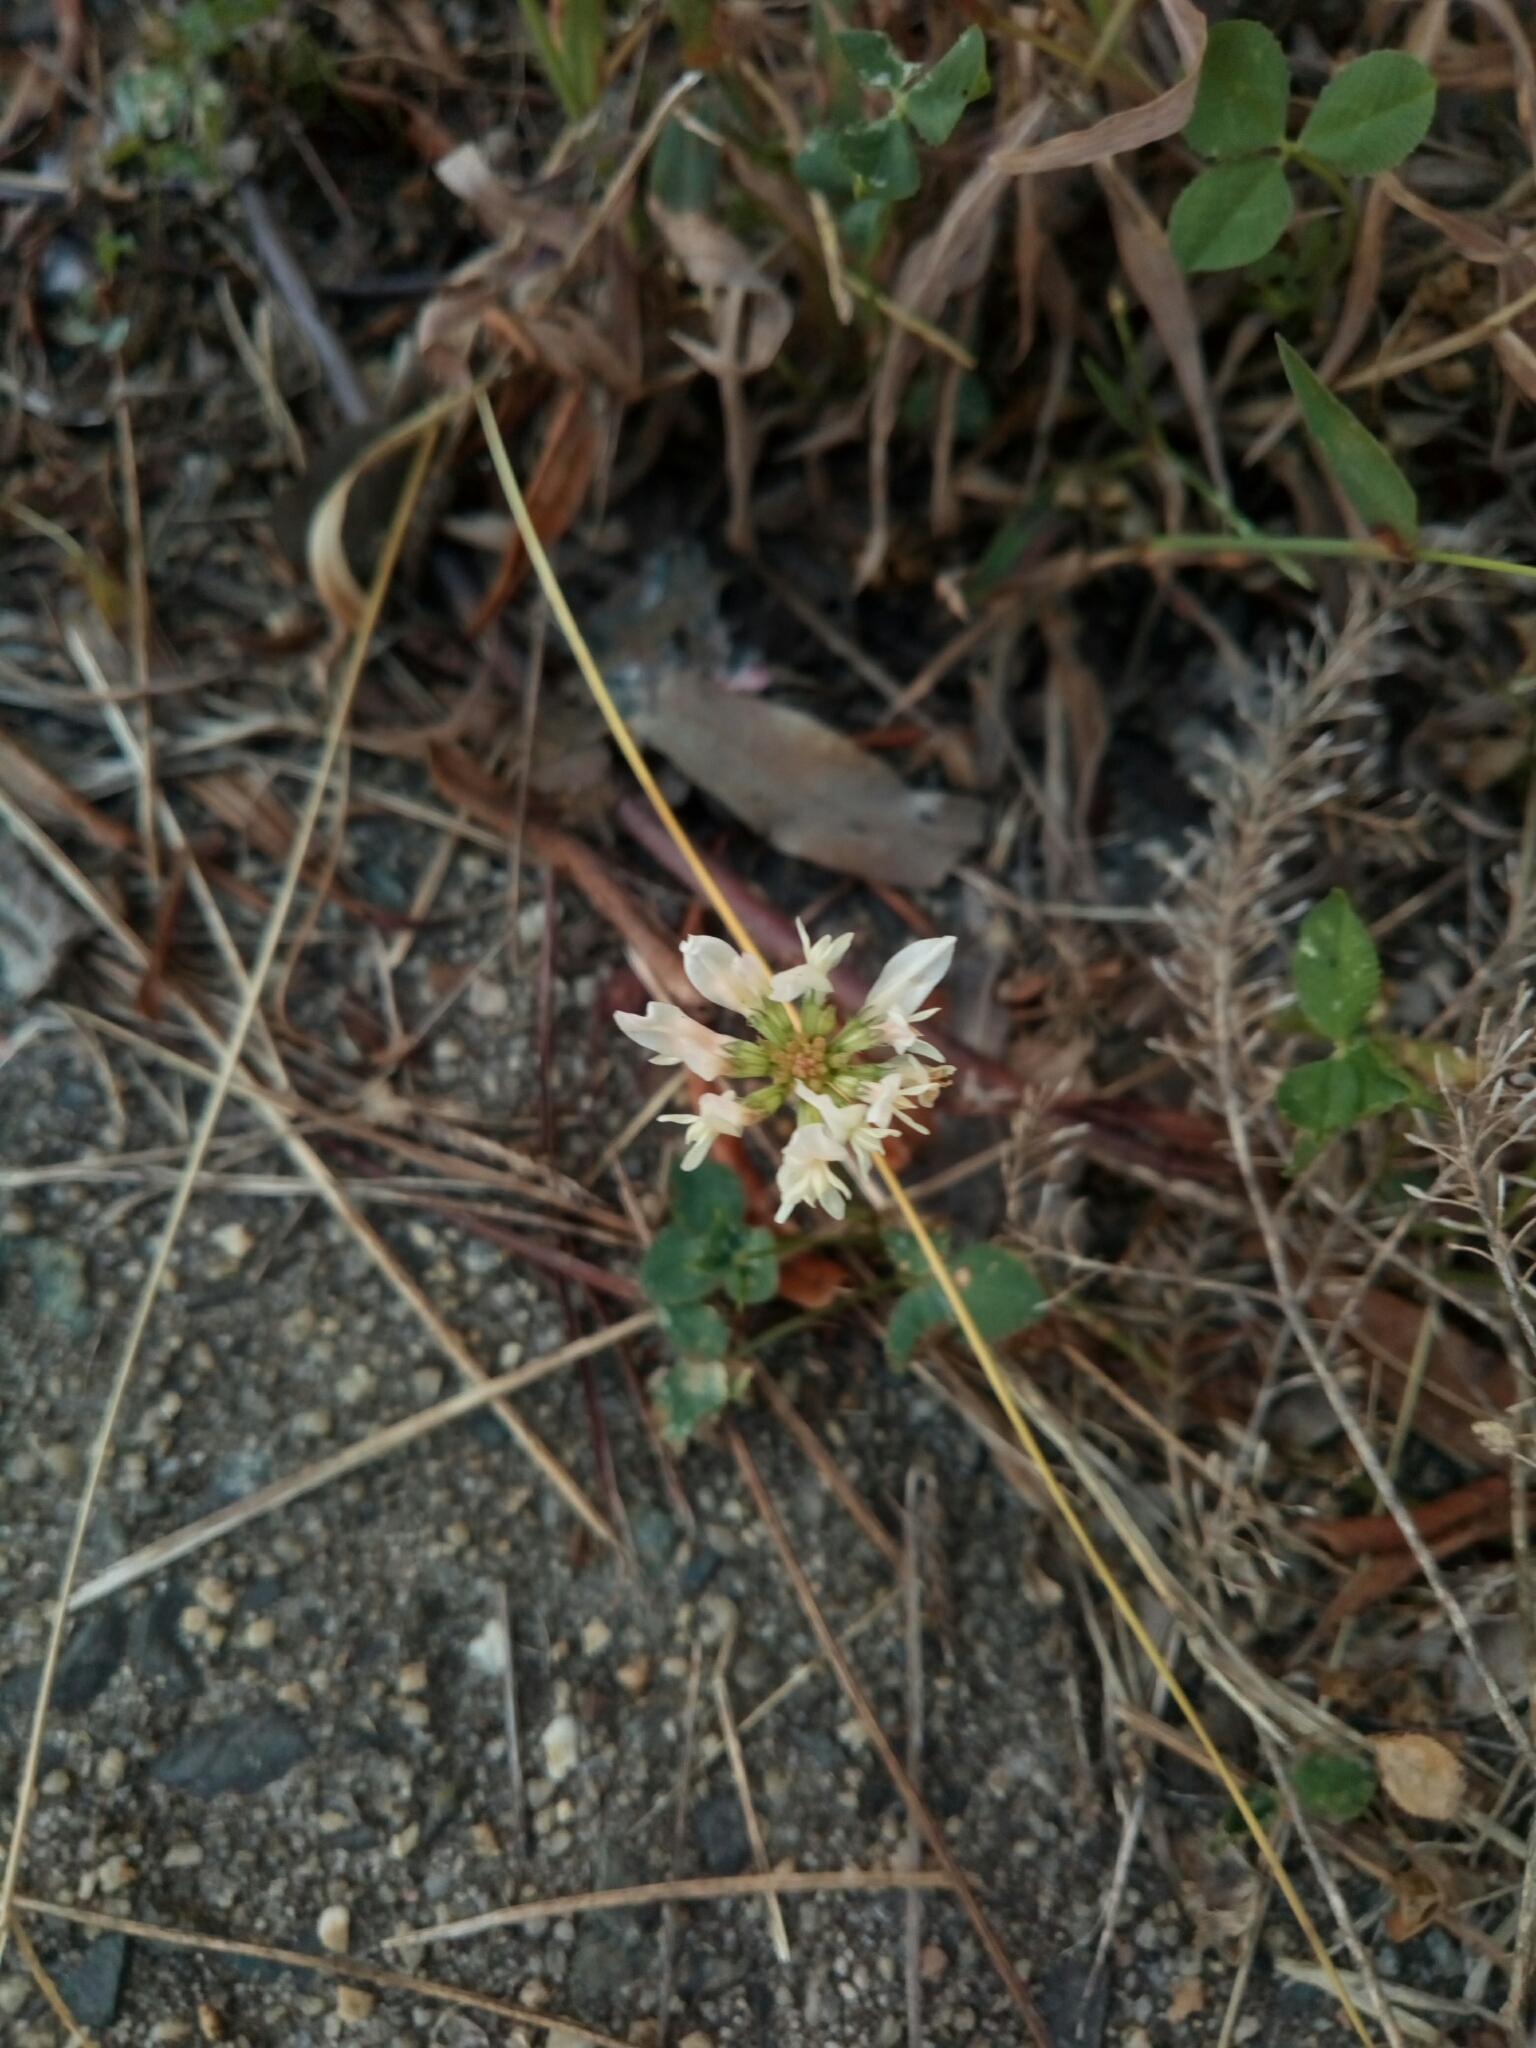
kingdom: Plantae
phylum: Tracheophyta
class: Magnoliopsida
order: Fabales
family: Fabaceae
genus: Trifolium
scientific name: Trifolium repens
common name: White clover
